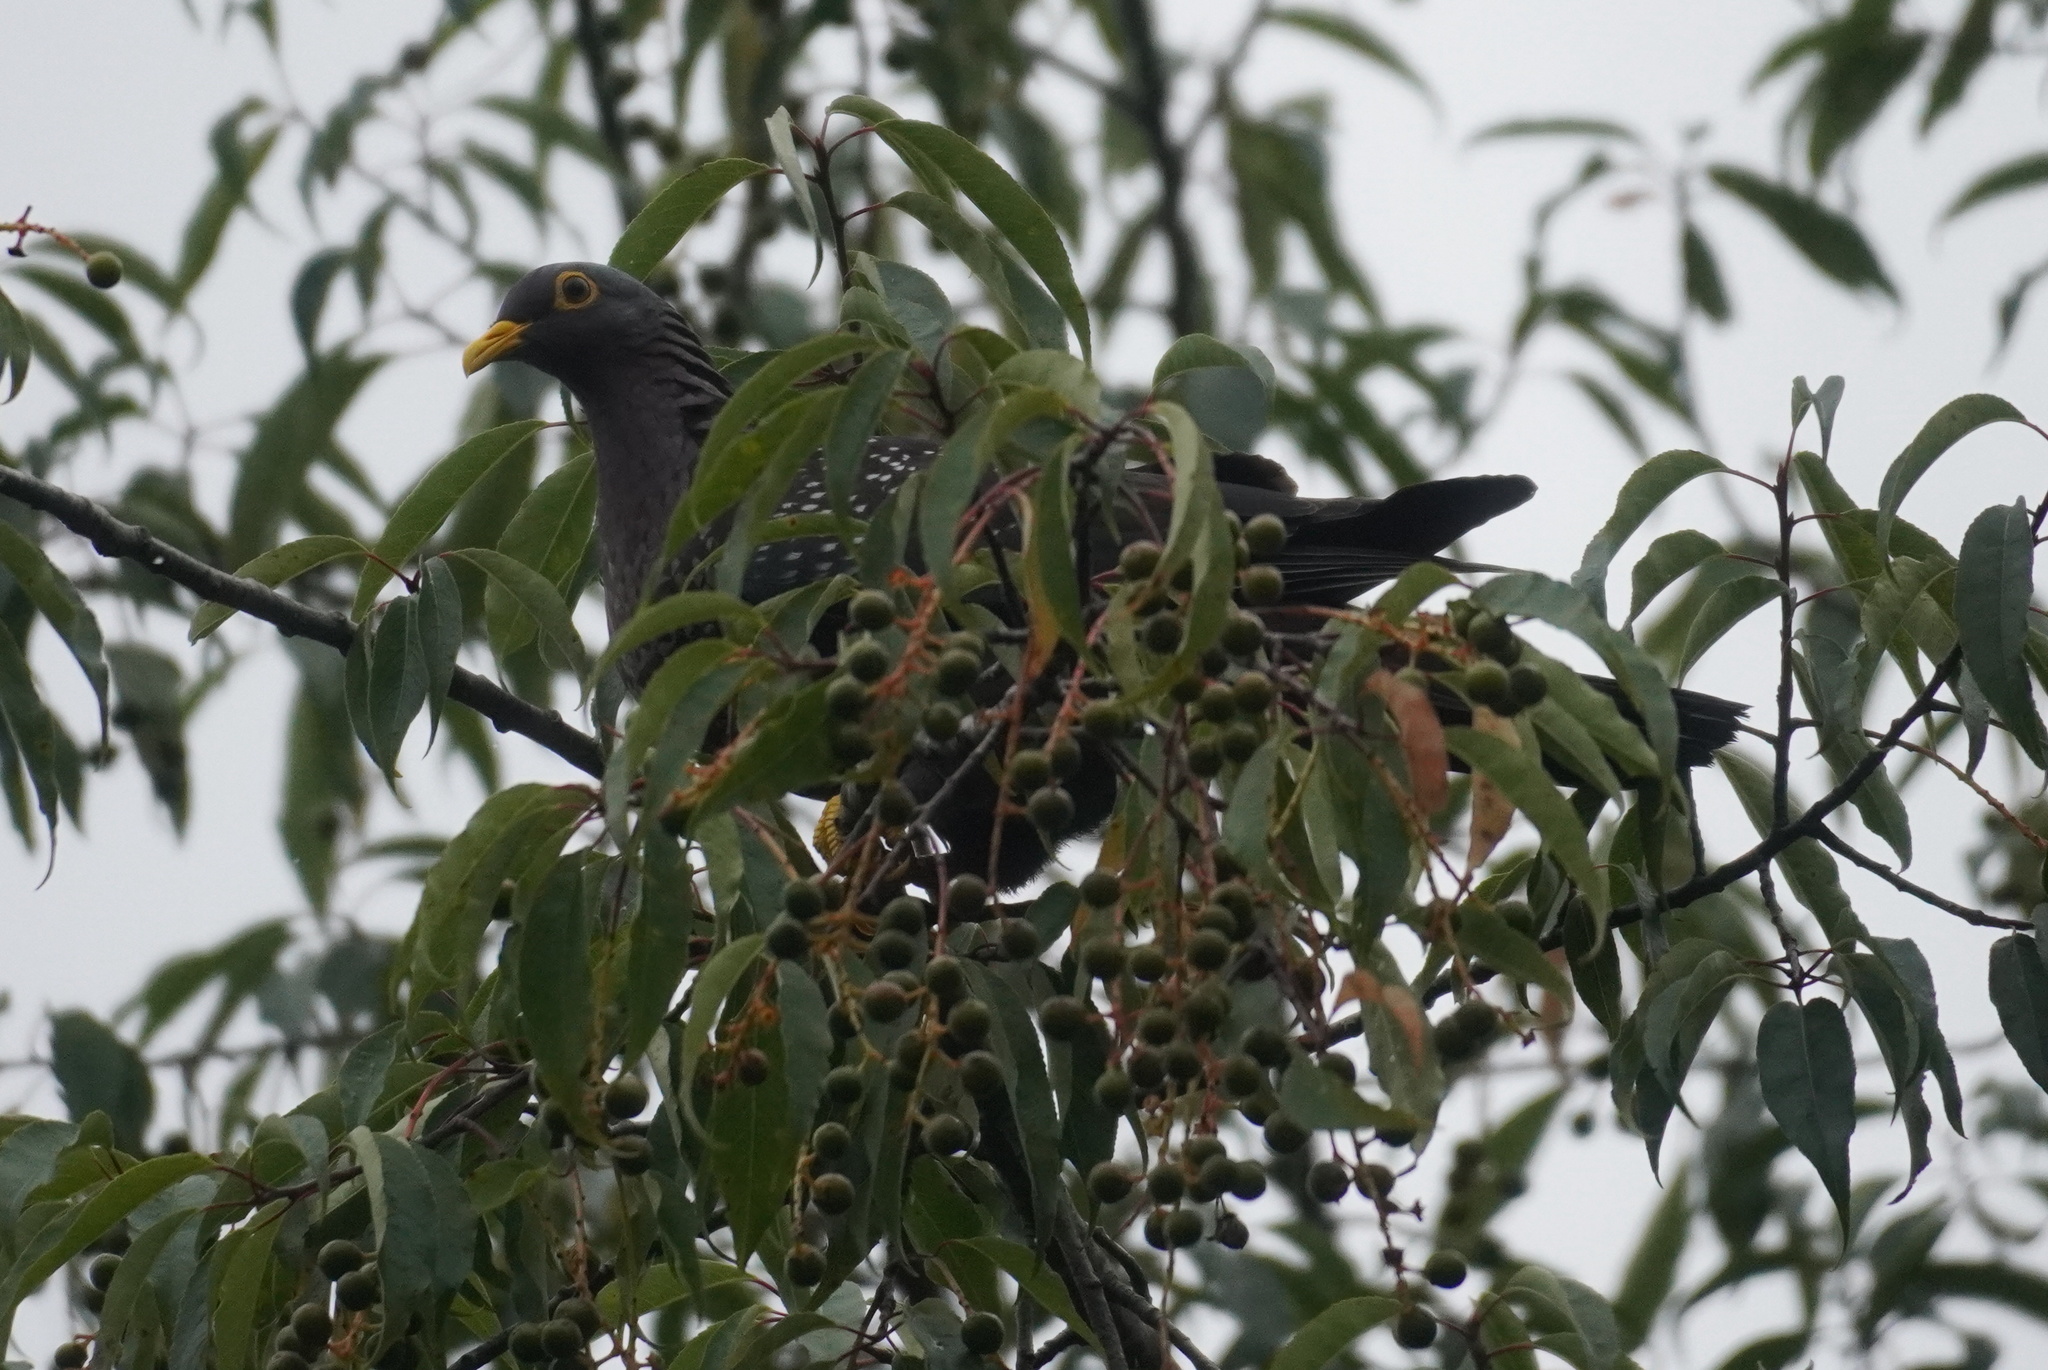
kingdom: Animalia
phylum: Chordata
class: Aves
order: Columbiformes
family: Columbidae
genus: Columba
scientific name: Columba arquatrix
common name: African olive pigeon
